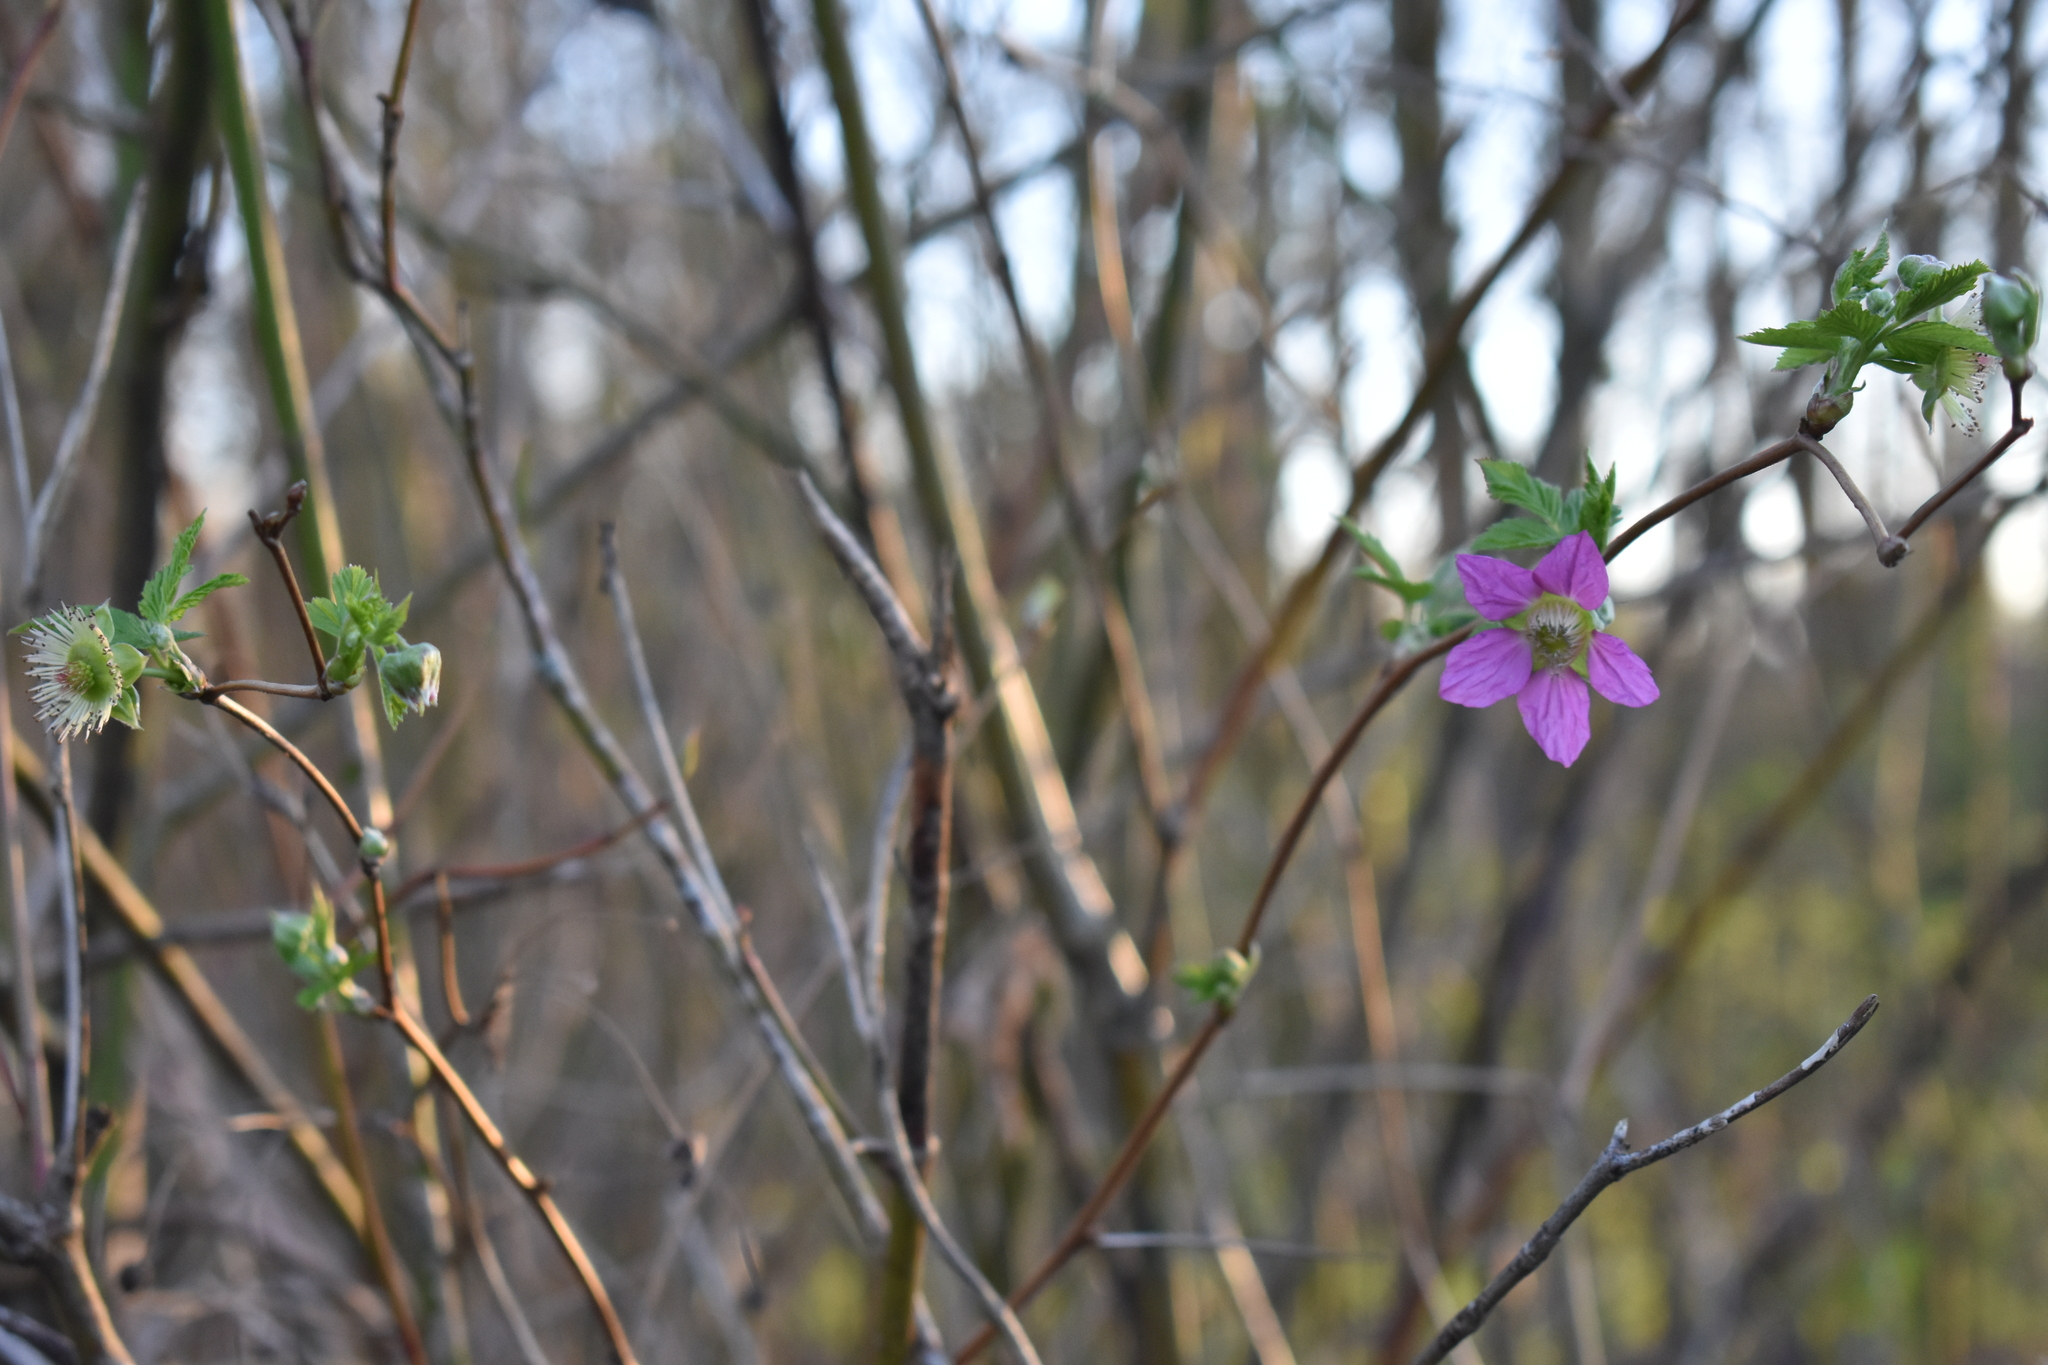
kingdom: Plantae
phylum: Tracheophyta
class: Magnoliopsida
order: Rosales
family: Rosaceae
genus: Rubus
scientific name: Rubus spectabilis
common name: Salmonberry
